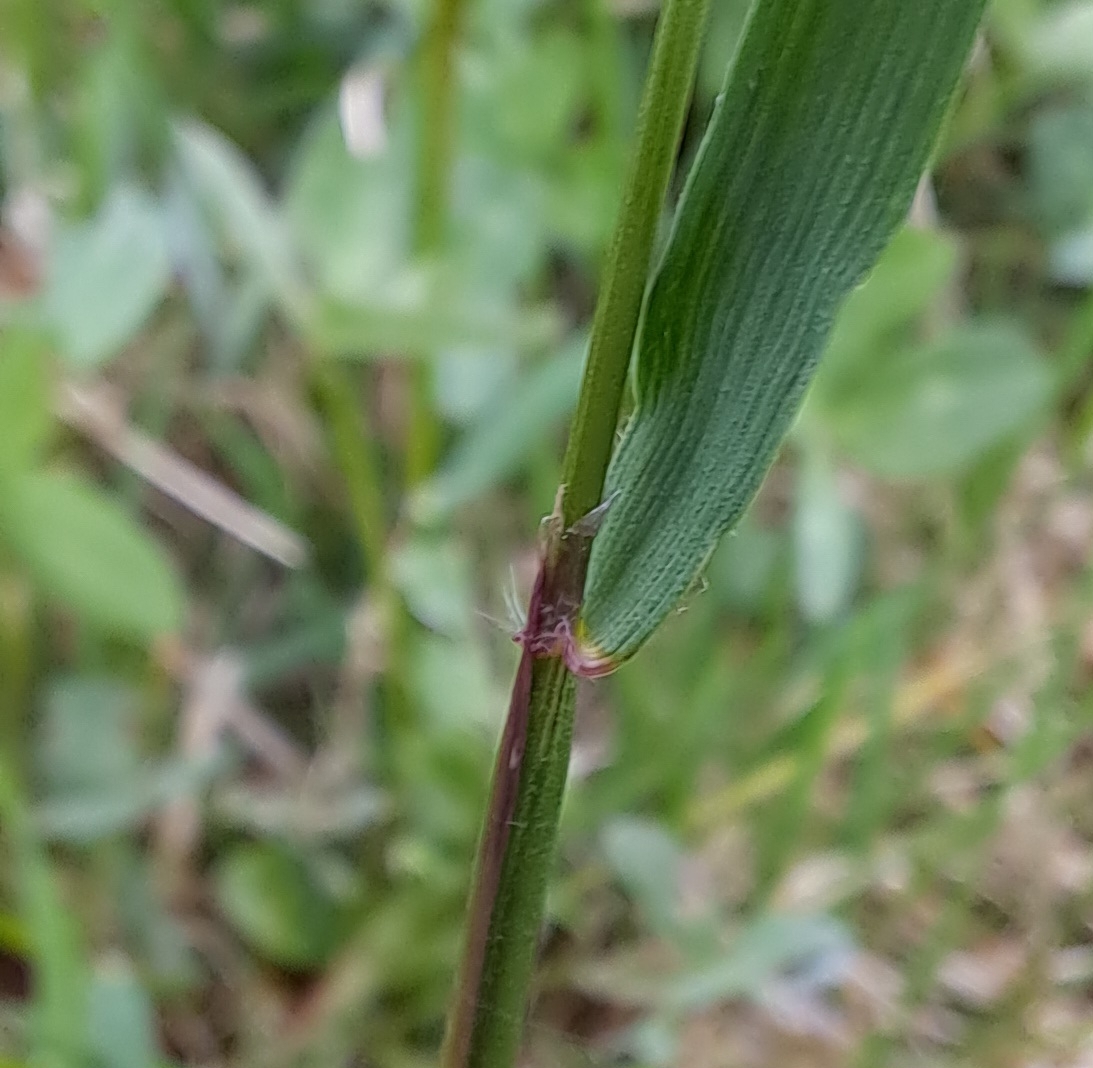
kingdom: Plantae
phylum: Tracheophyta
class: Liliopsida
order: Poales
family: Poaceae
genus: Anthoxanthum
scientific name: Anthoxanthum odoratum
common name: Sweet vernalgrass
